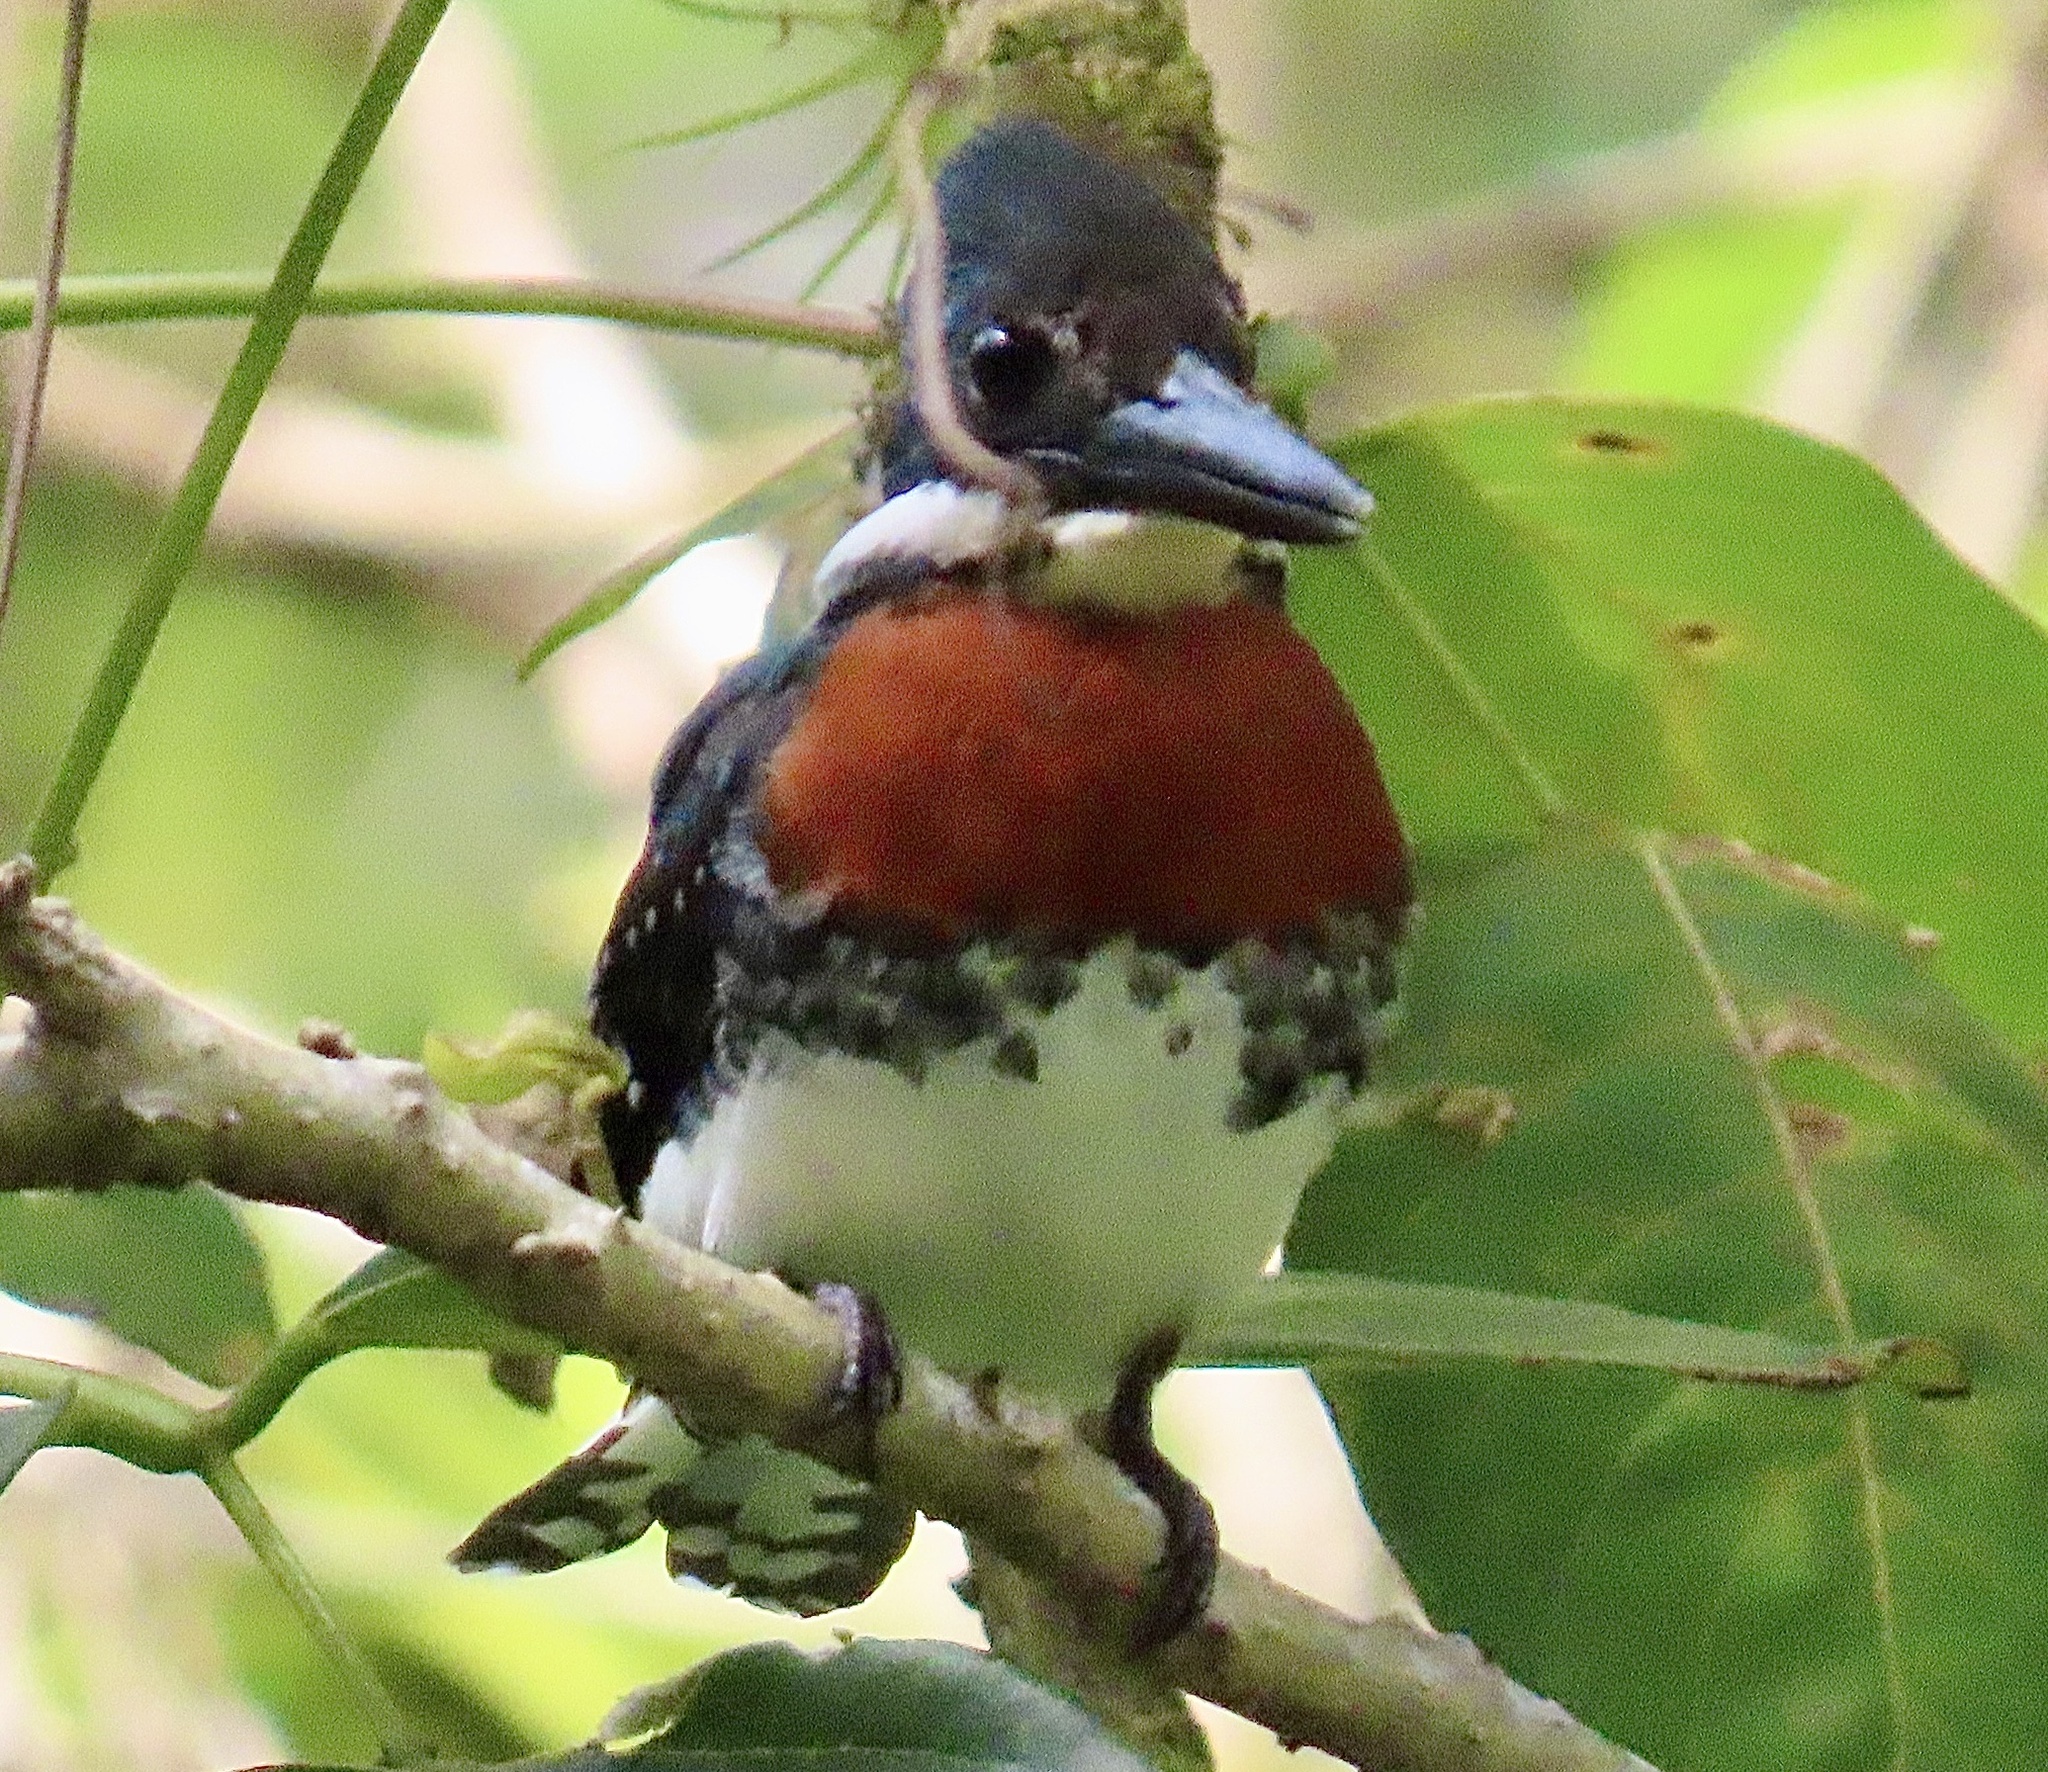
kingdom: Animalia
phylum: Chordata
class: Aves
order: Coraciiformes
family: Alcedinidae
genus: Chloroceryle
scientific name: Chloroceryle americana
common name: Green kingfisher
